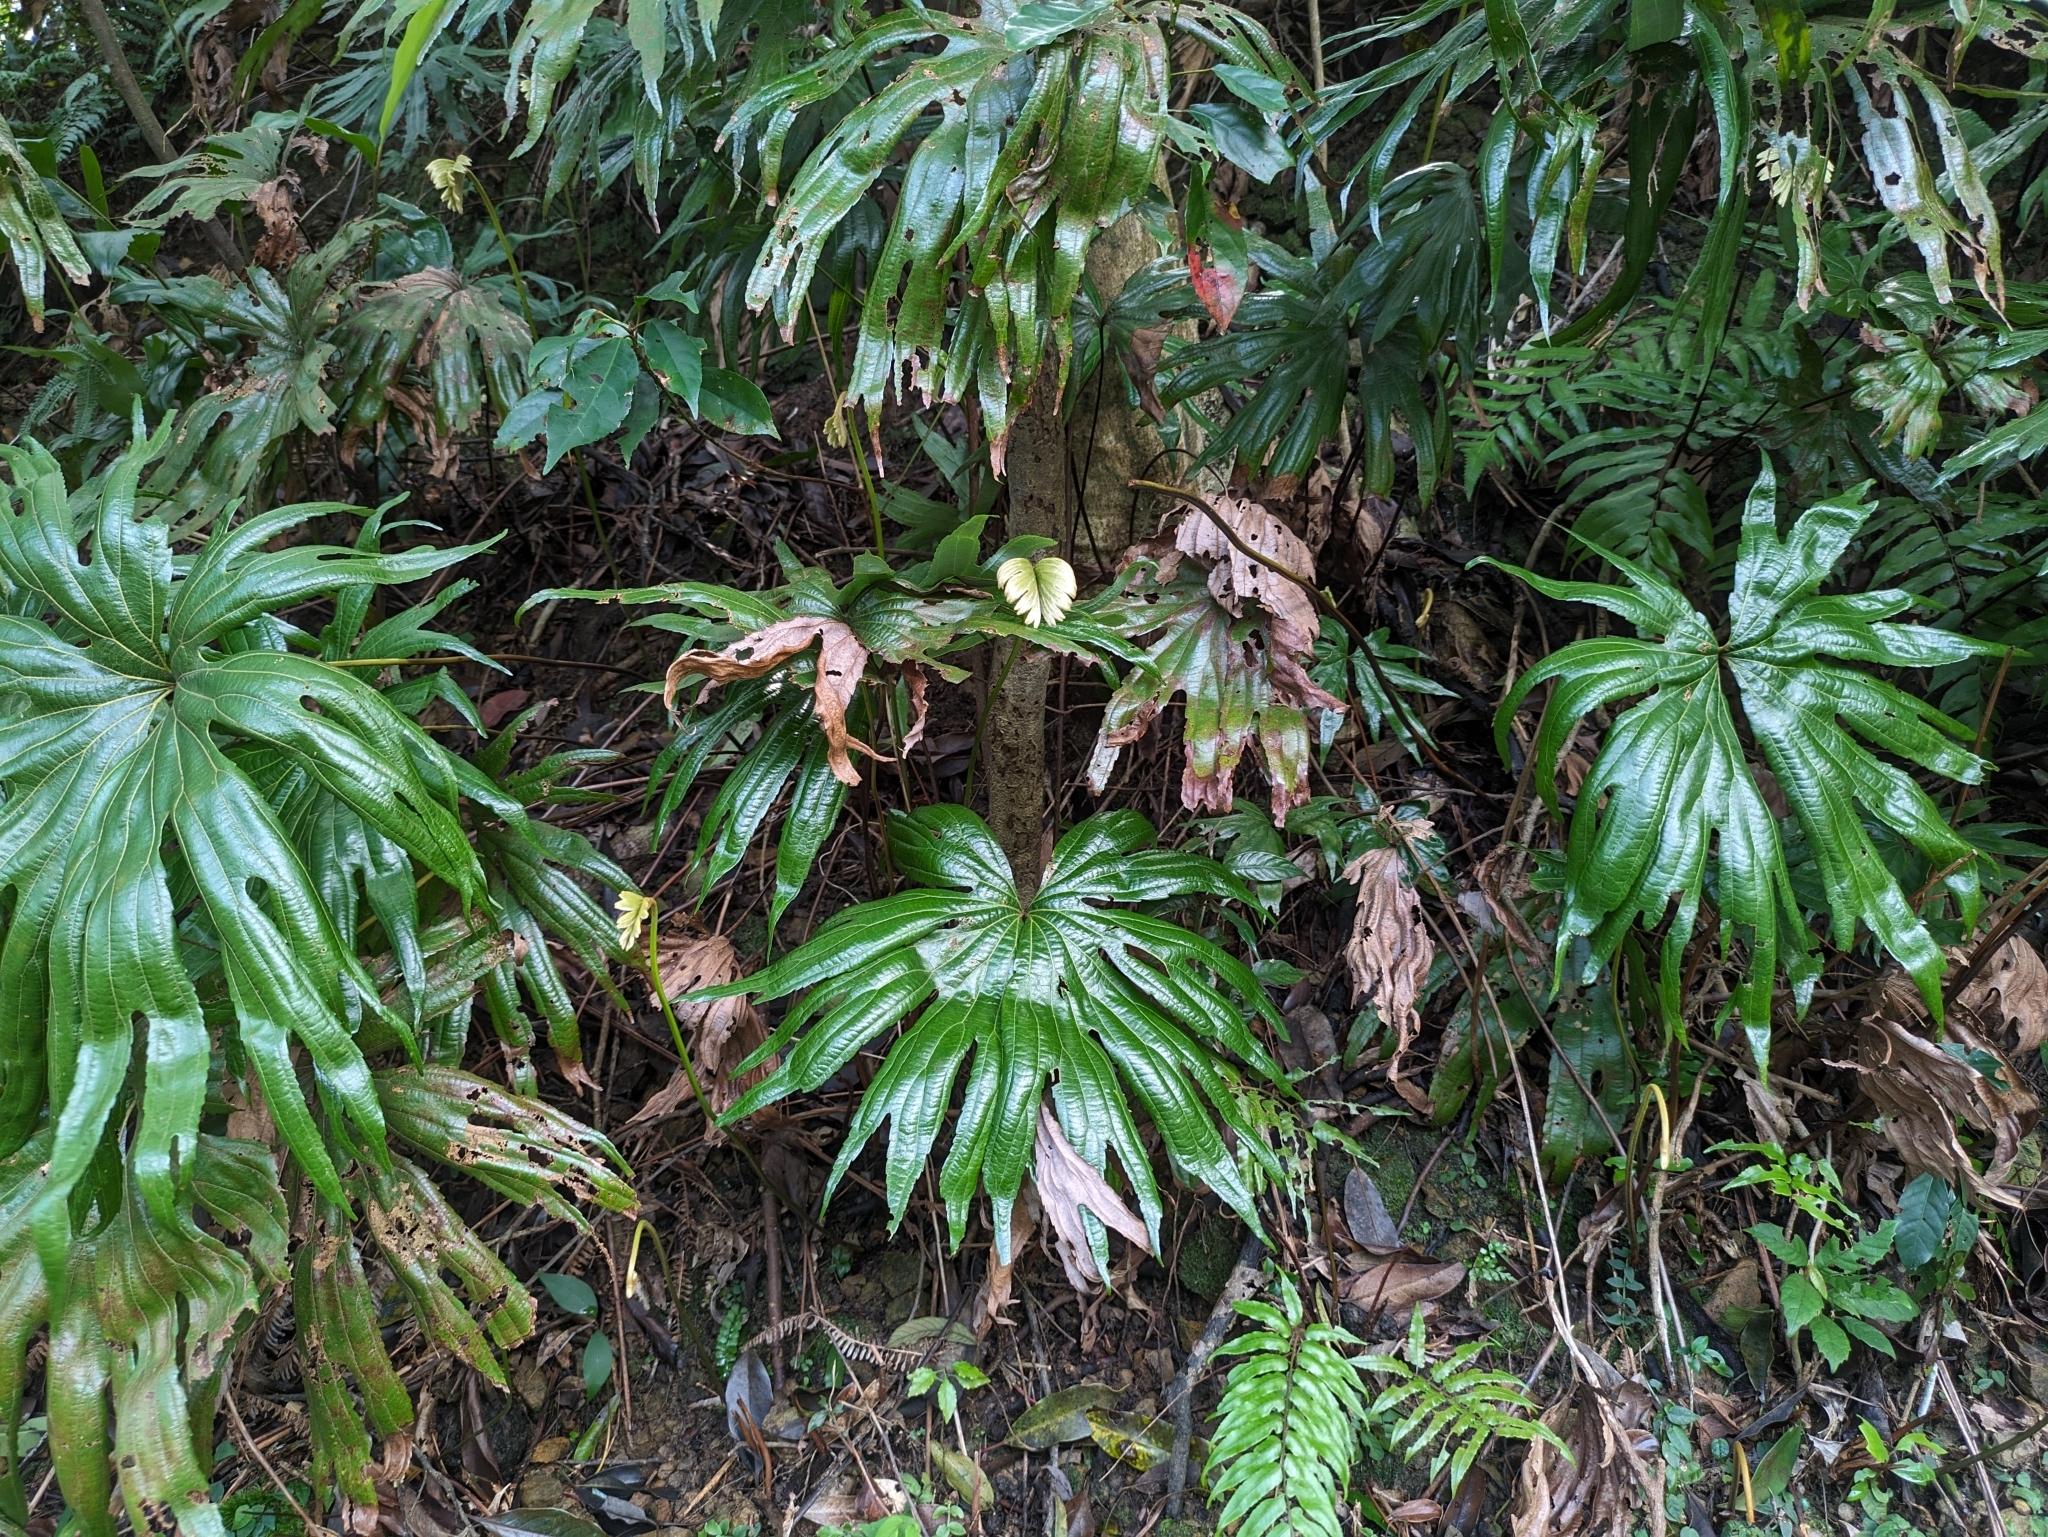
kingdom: Plantae
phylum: Tracheophyta
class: Polypodiopsida
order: Gleicheniales
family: Dipteridaceae
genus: Dipteris
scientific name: Dipteris conjugata
